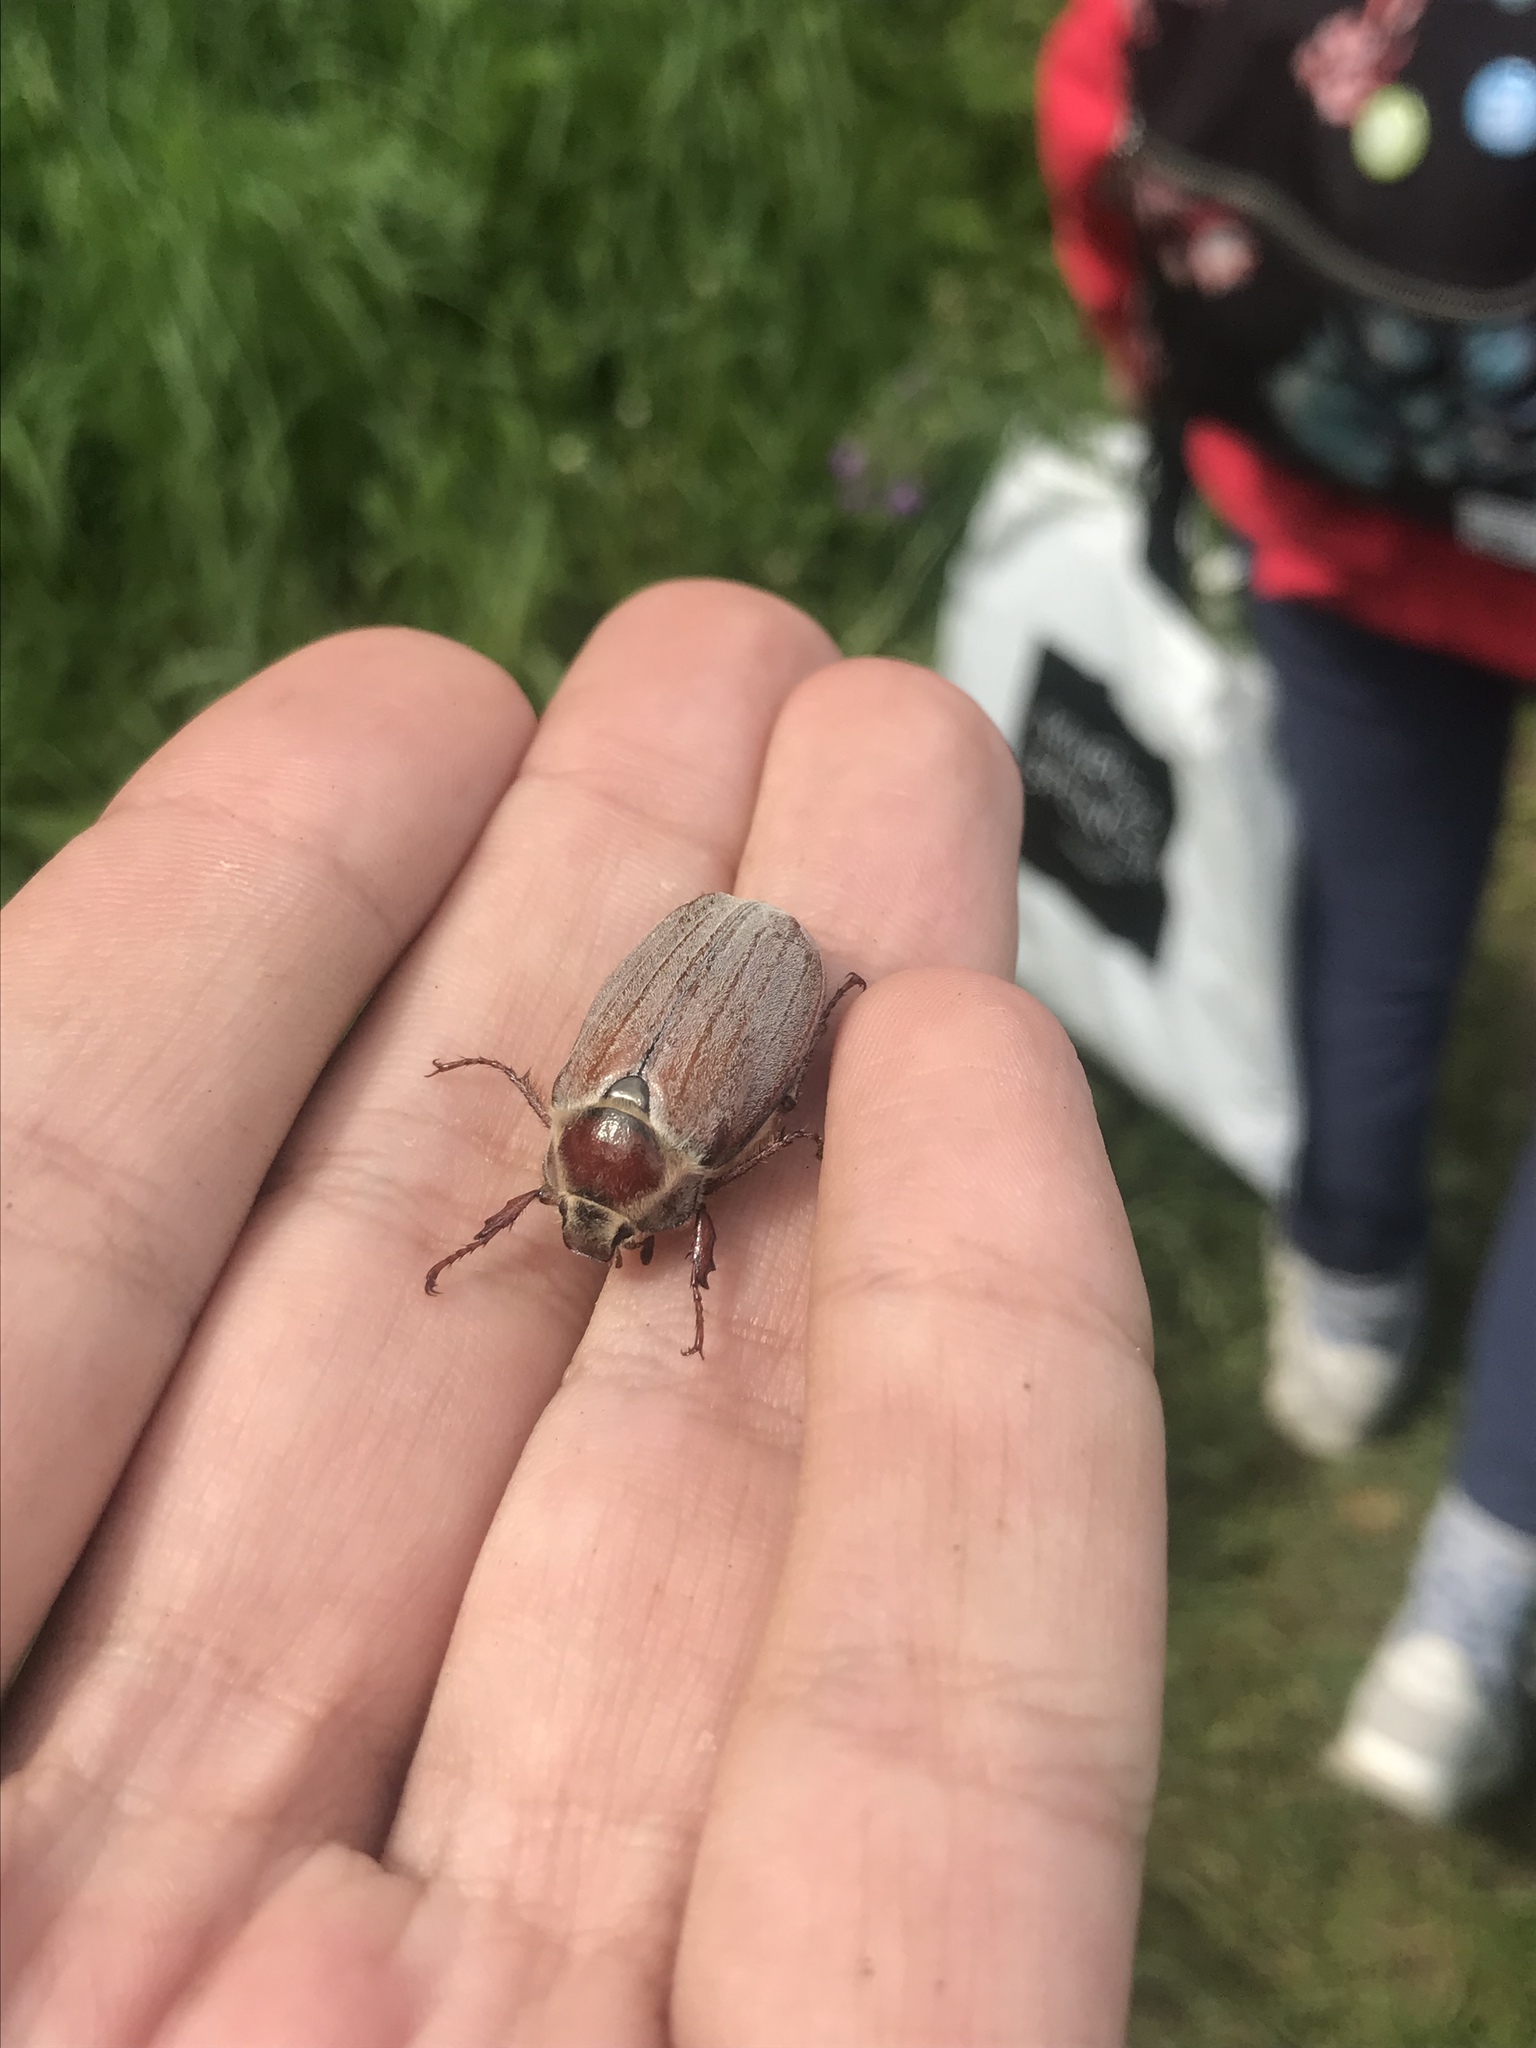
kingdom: Animalia
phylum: Arthropoda
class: Insecta
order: Coleoptera
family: Scarabaeidae
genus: Melolontha
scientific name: Melolontha hippocastani
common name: Chestnut cockchafer
